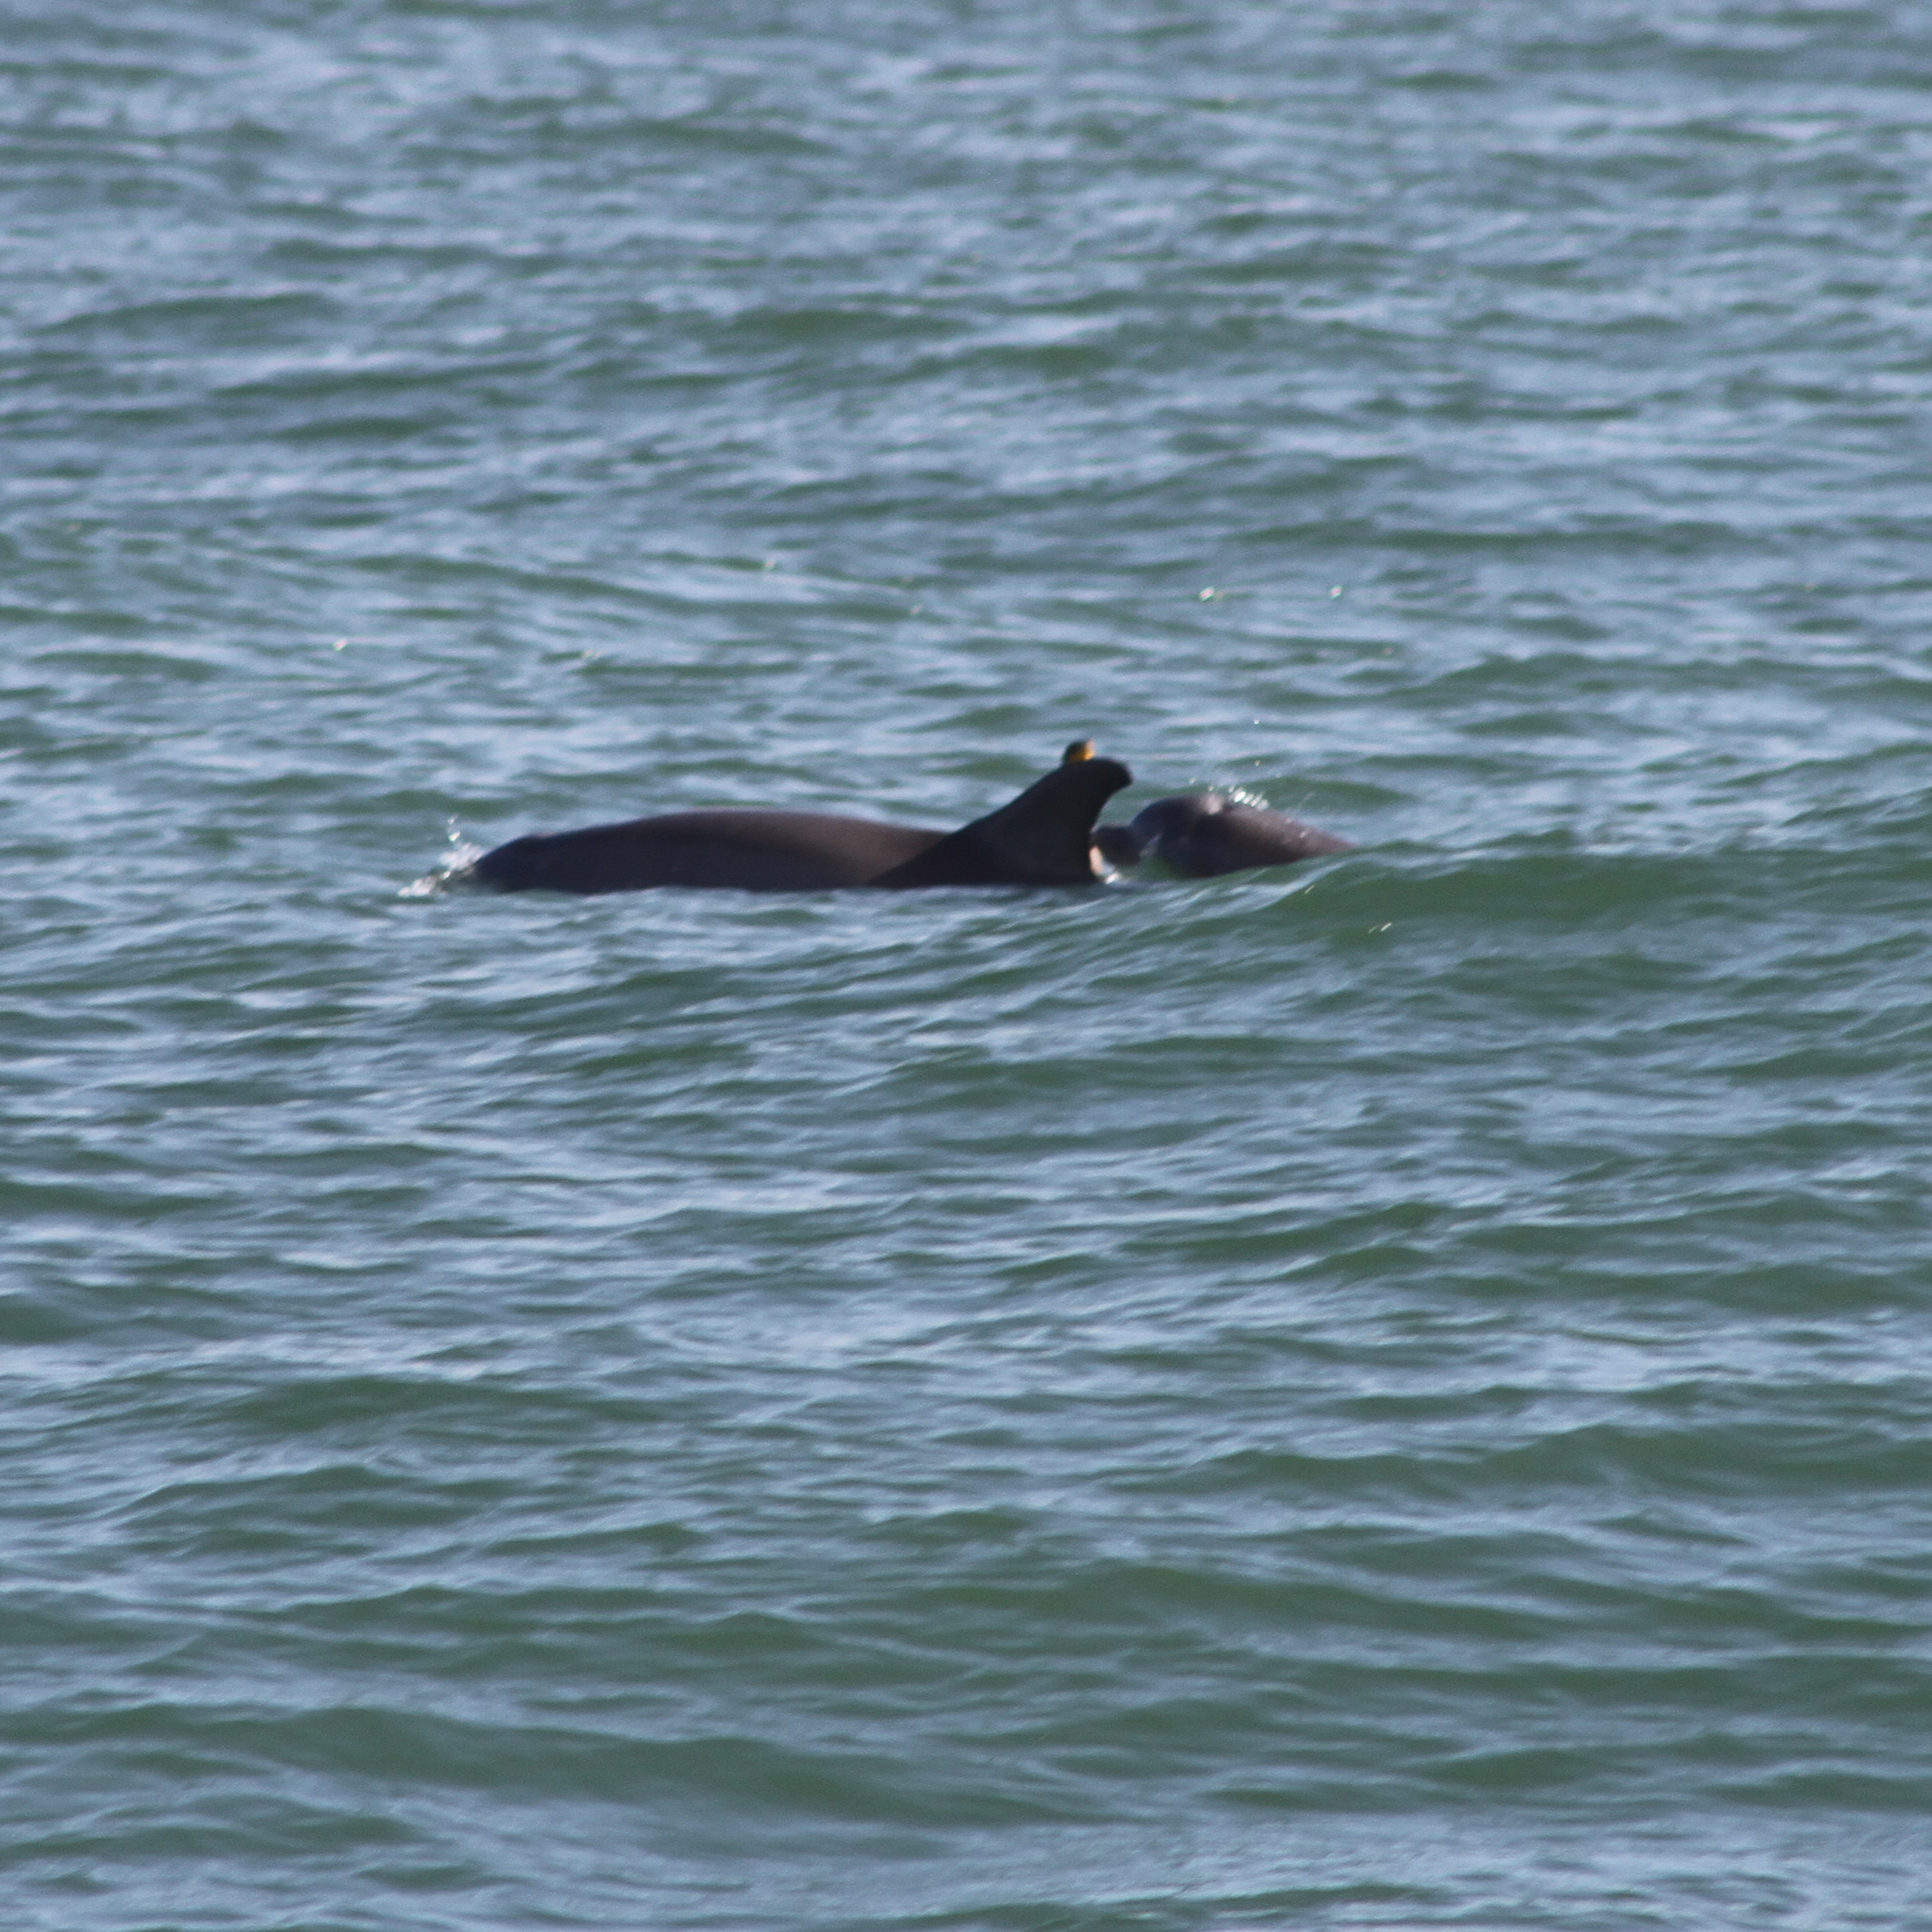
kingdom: Animalia
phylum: Chordata
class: Mammalia
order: Cetacea
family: Delphinidae
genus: Tursiops
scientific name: Tursiops truncatus
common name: Bottlenose dolphin
